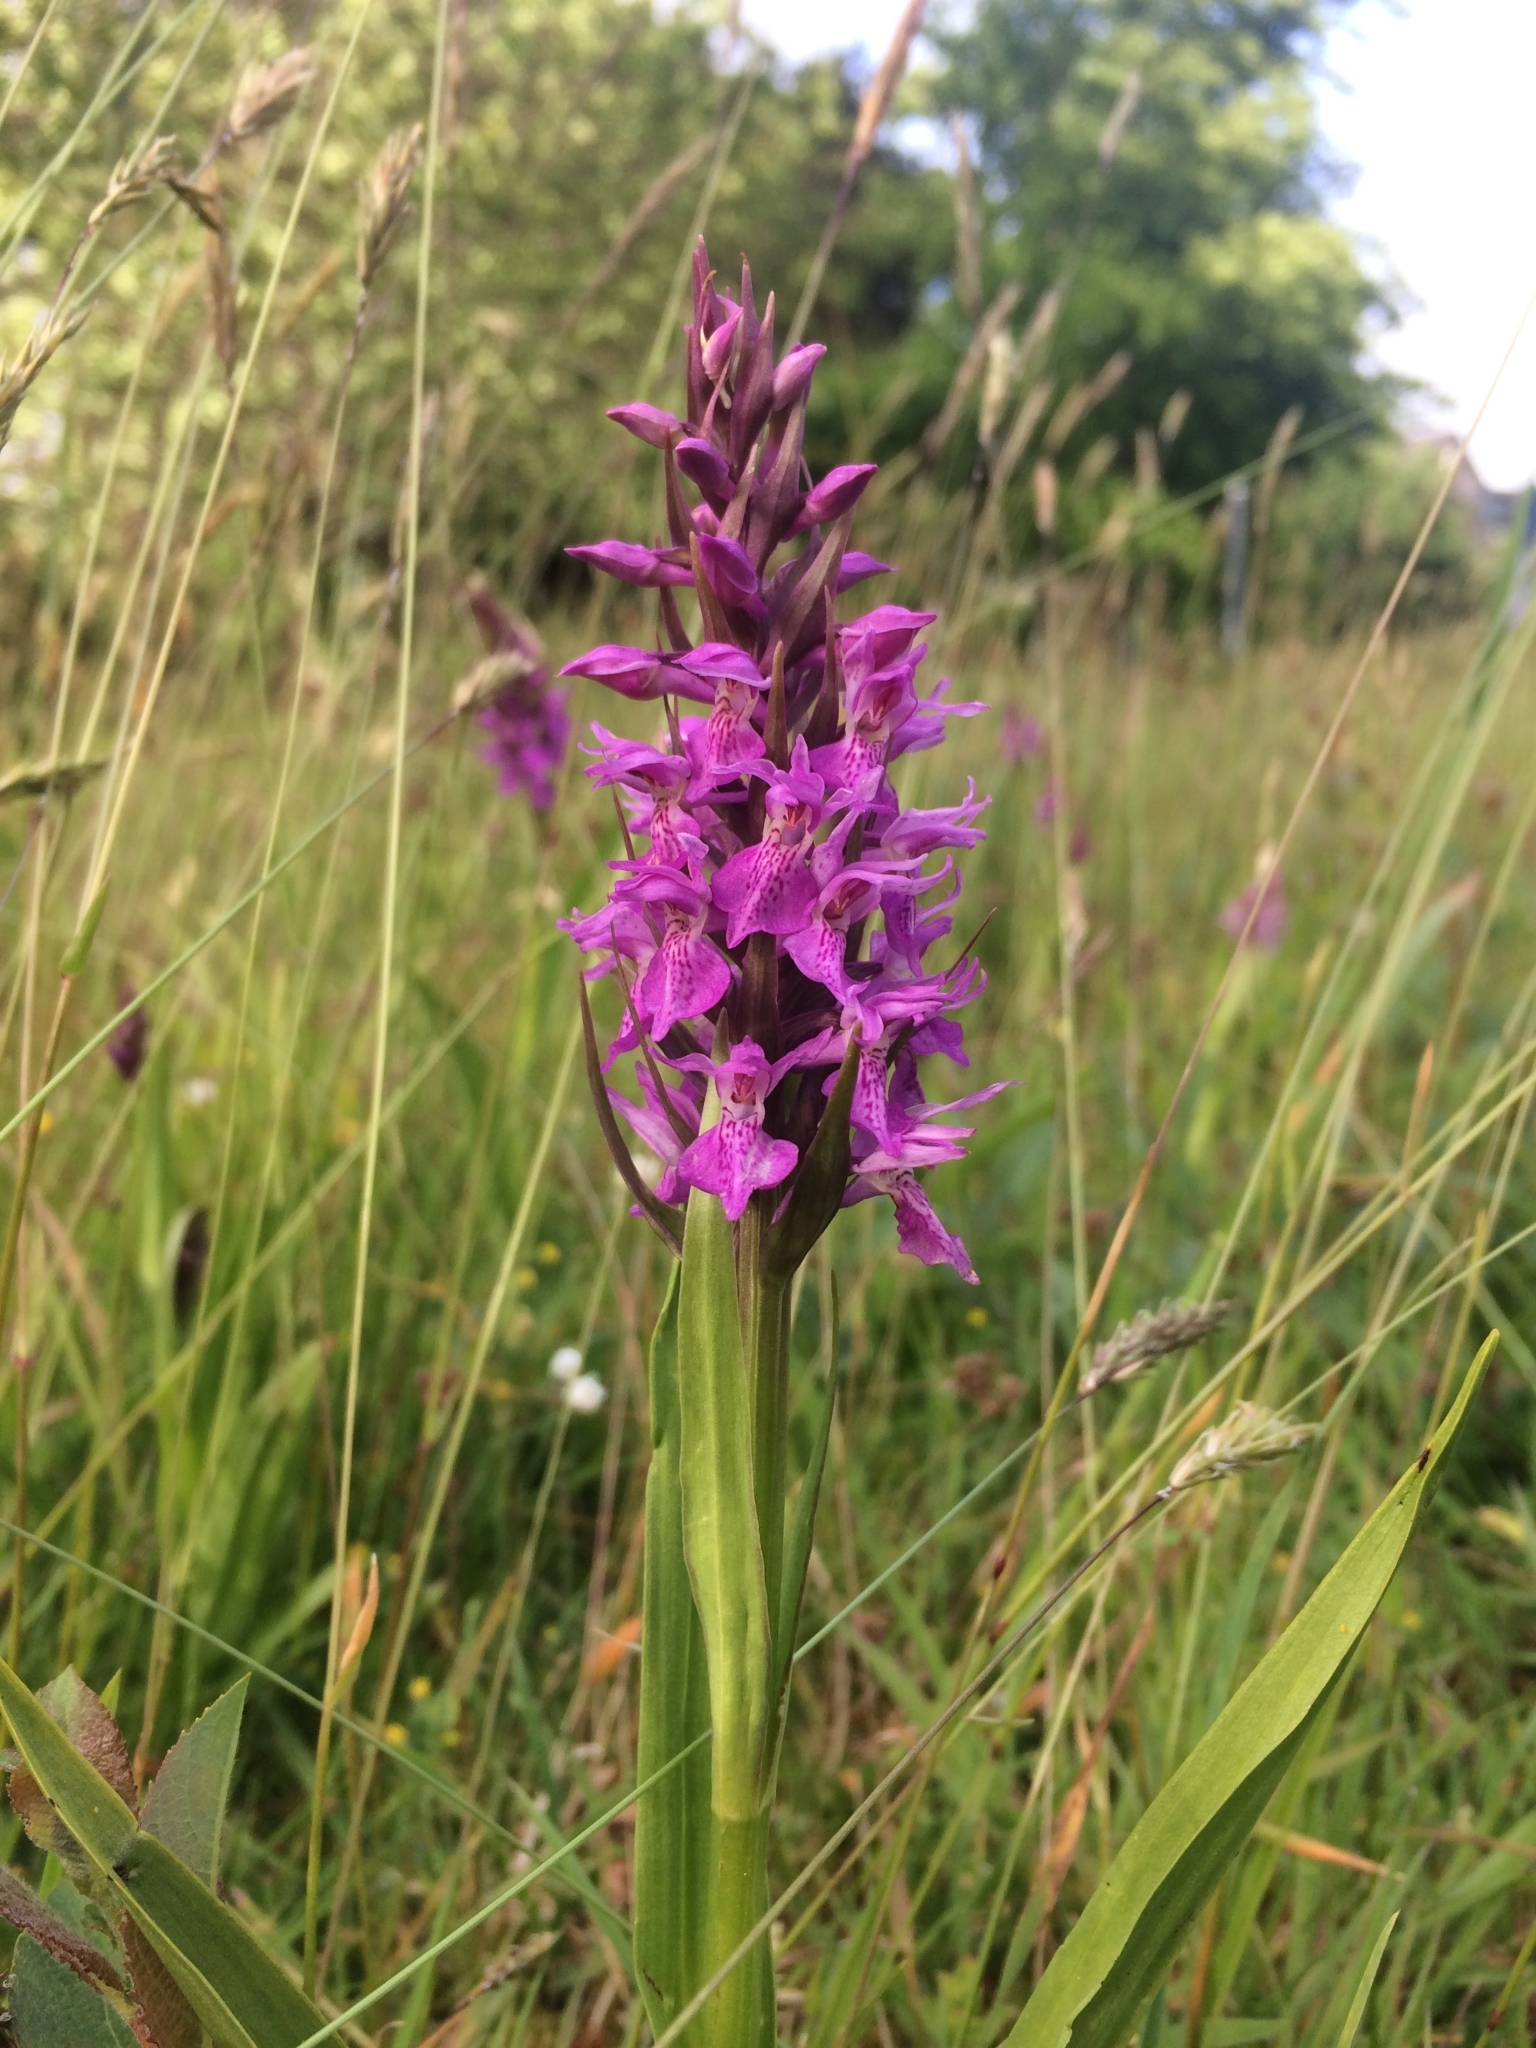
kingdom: Plantae
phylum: Tracheophyta
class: Liliopsida
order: Asparagales
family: Orchidaceae
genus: Dactylorhiza
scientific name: Dactylorhiza majalis
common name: Marsh orchid
